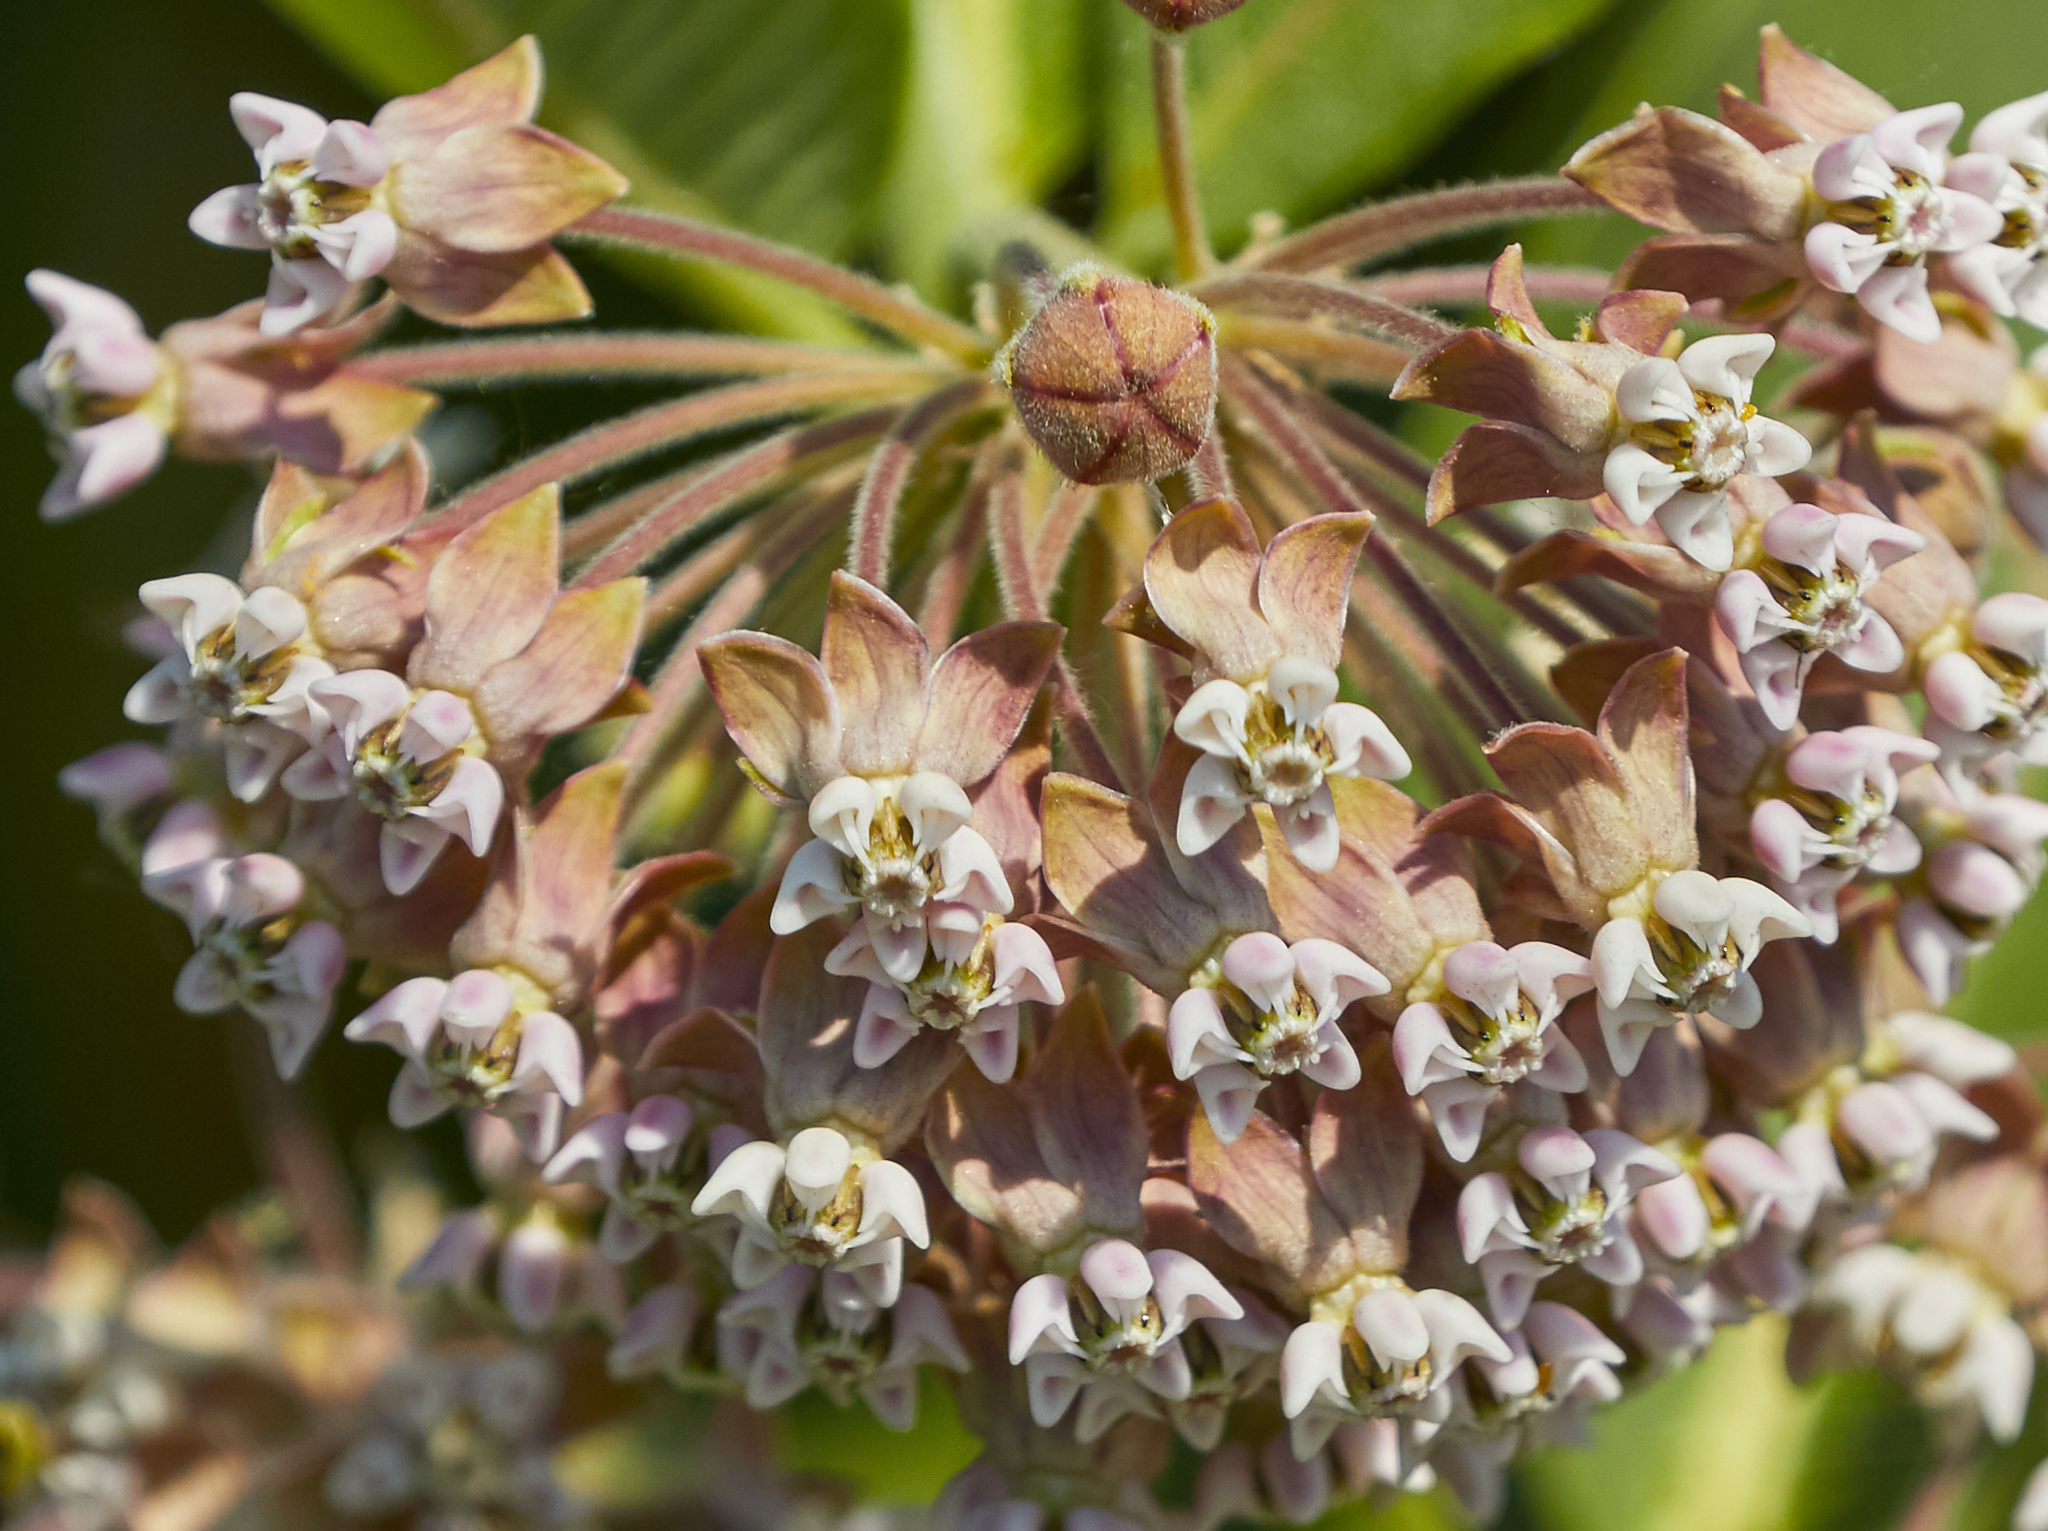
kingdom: Plantae
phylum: Tracheophyta
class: Magnoliopsida
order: Gentianales
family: Apocynaceae
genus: Asclepias
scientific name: Asclepias syriaca
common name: Common milkweed
